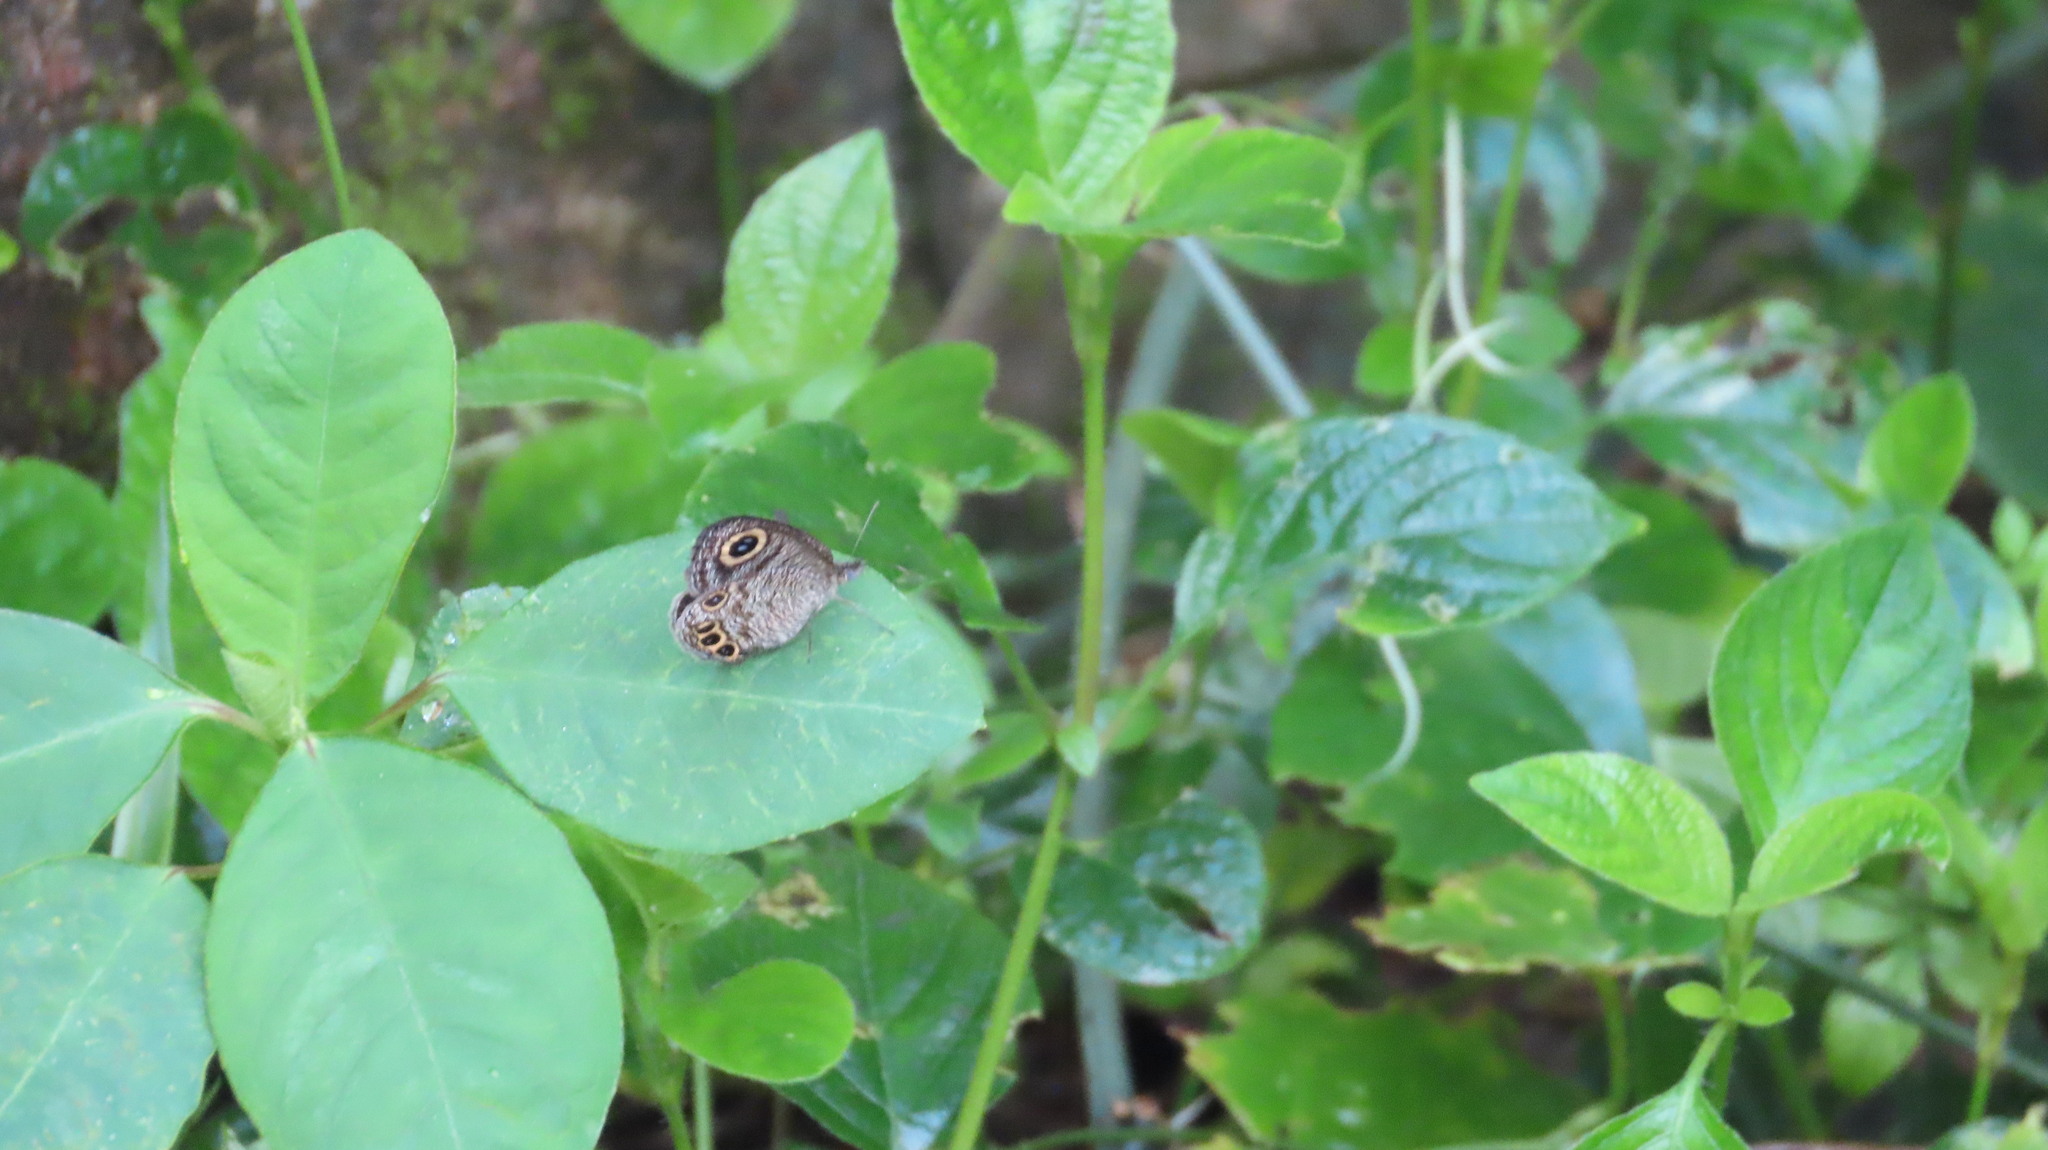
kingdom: Animalia
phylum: Arthropoda
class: Insecta
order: Lepidoptera
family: Nymphalidae
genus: Ypthima
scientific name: Ypthima huebneri
